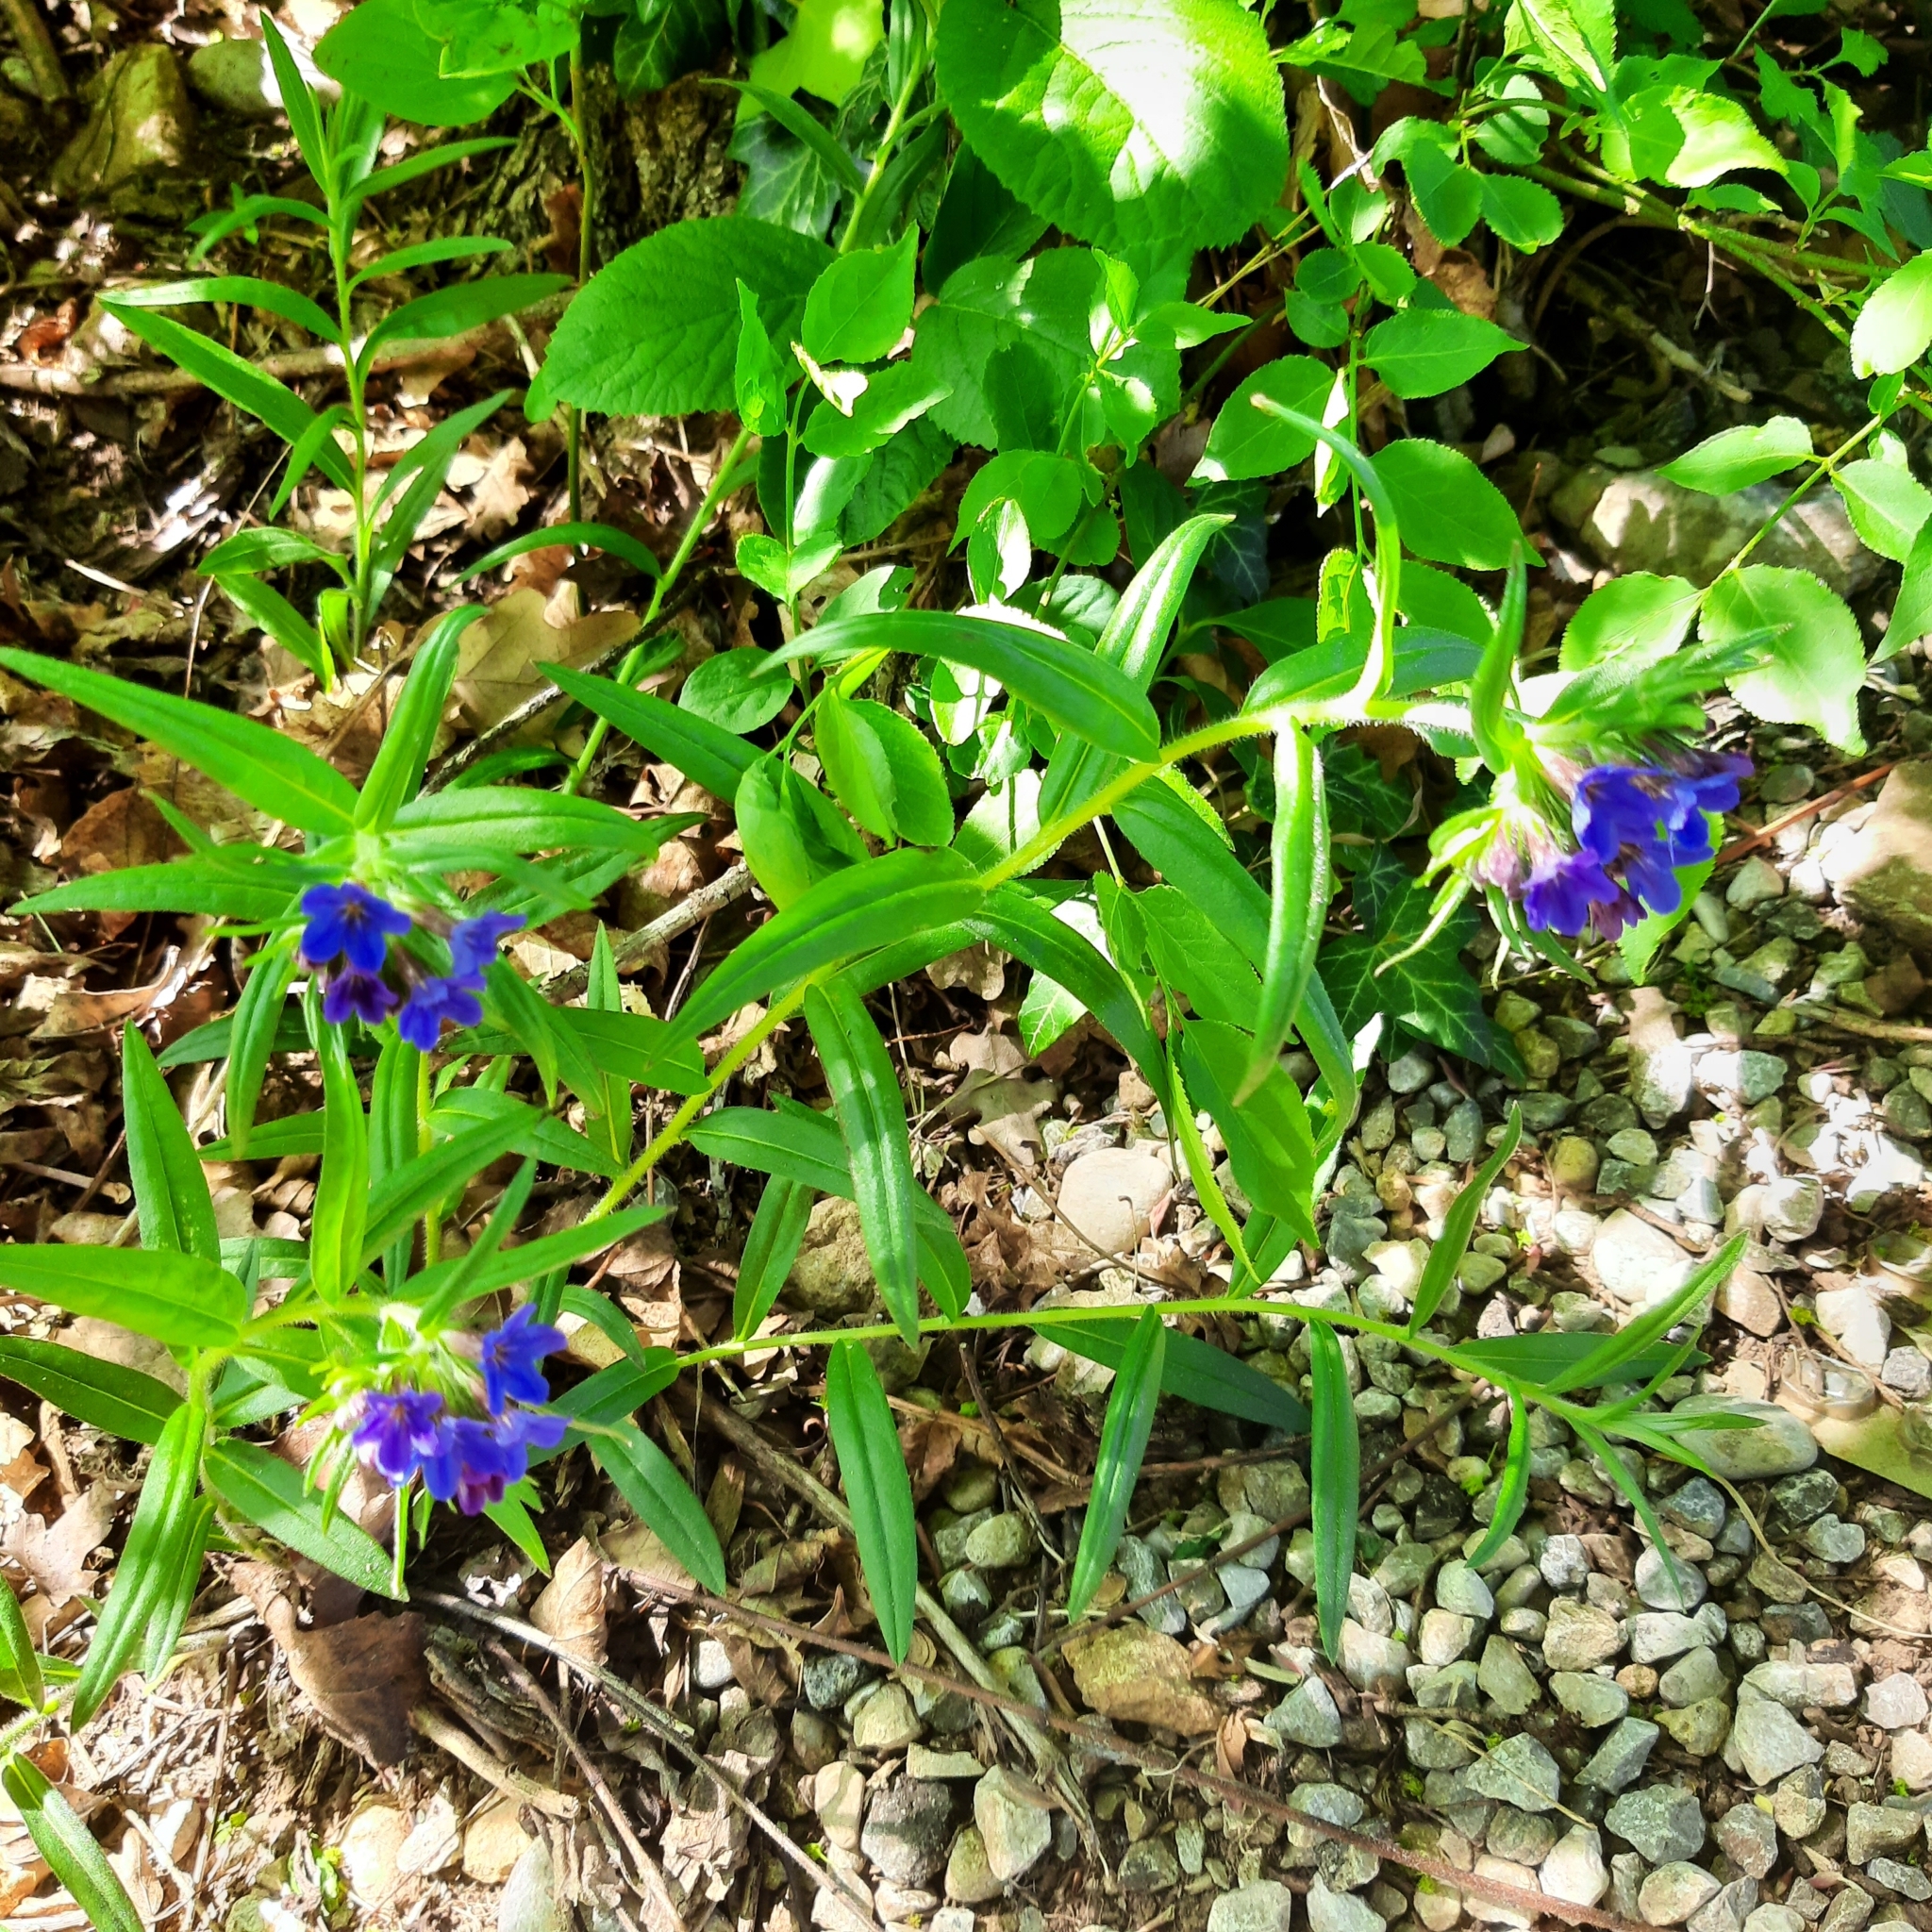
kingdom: Plantae
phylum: Tracheophyta
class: Magnoliopsida
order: Boraginales
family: Boraginaceae
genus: Aegonychon
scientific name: Aegonychon purpurocaeruleum
